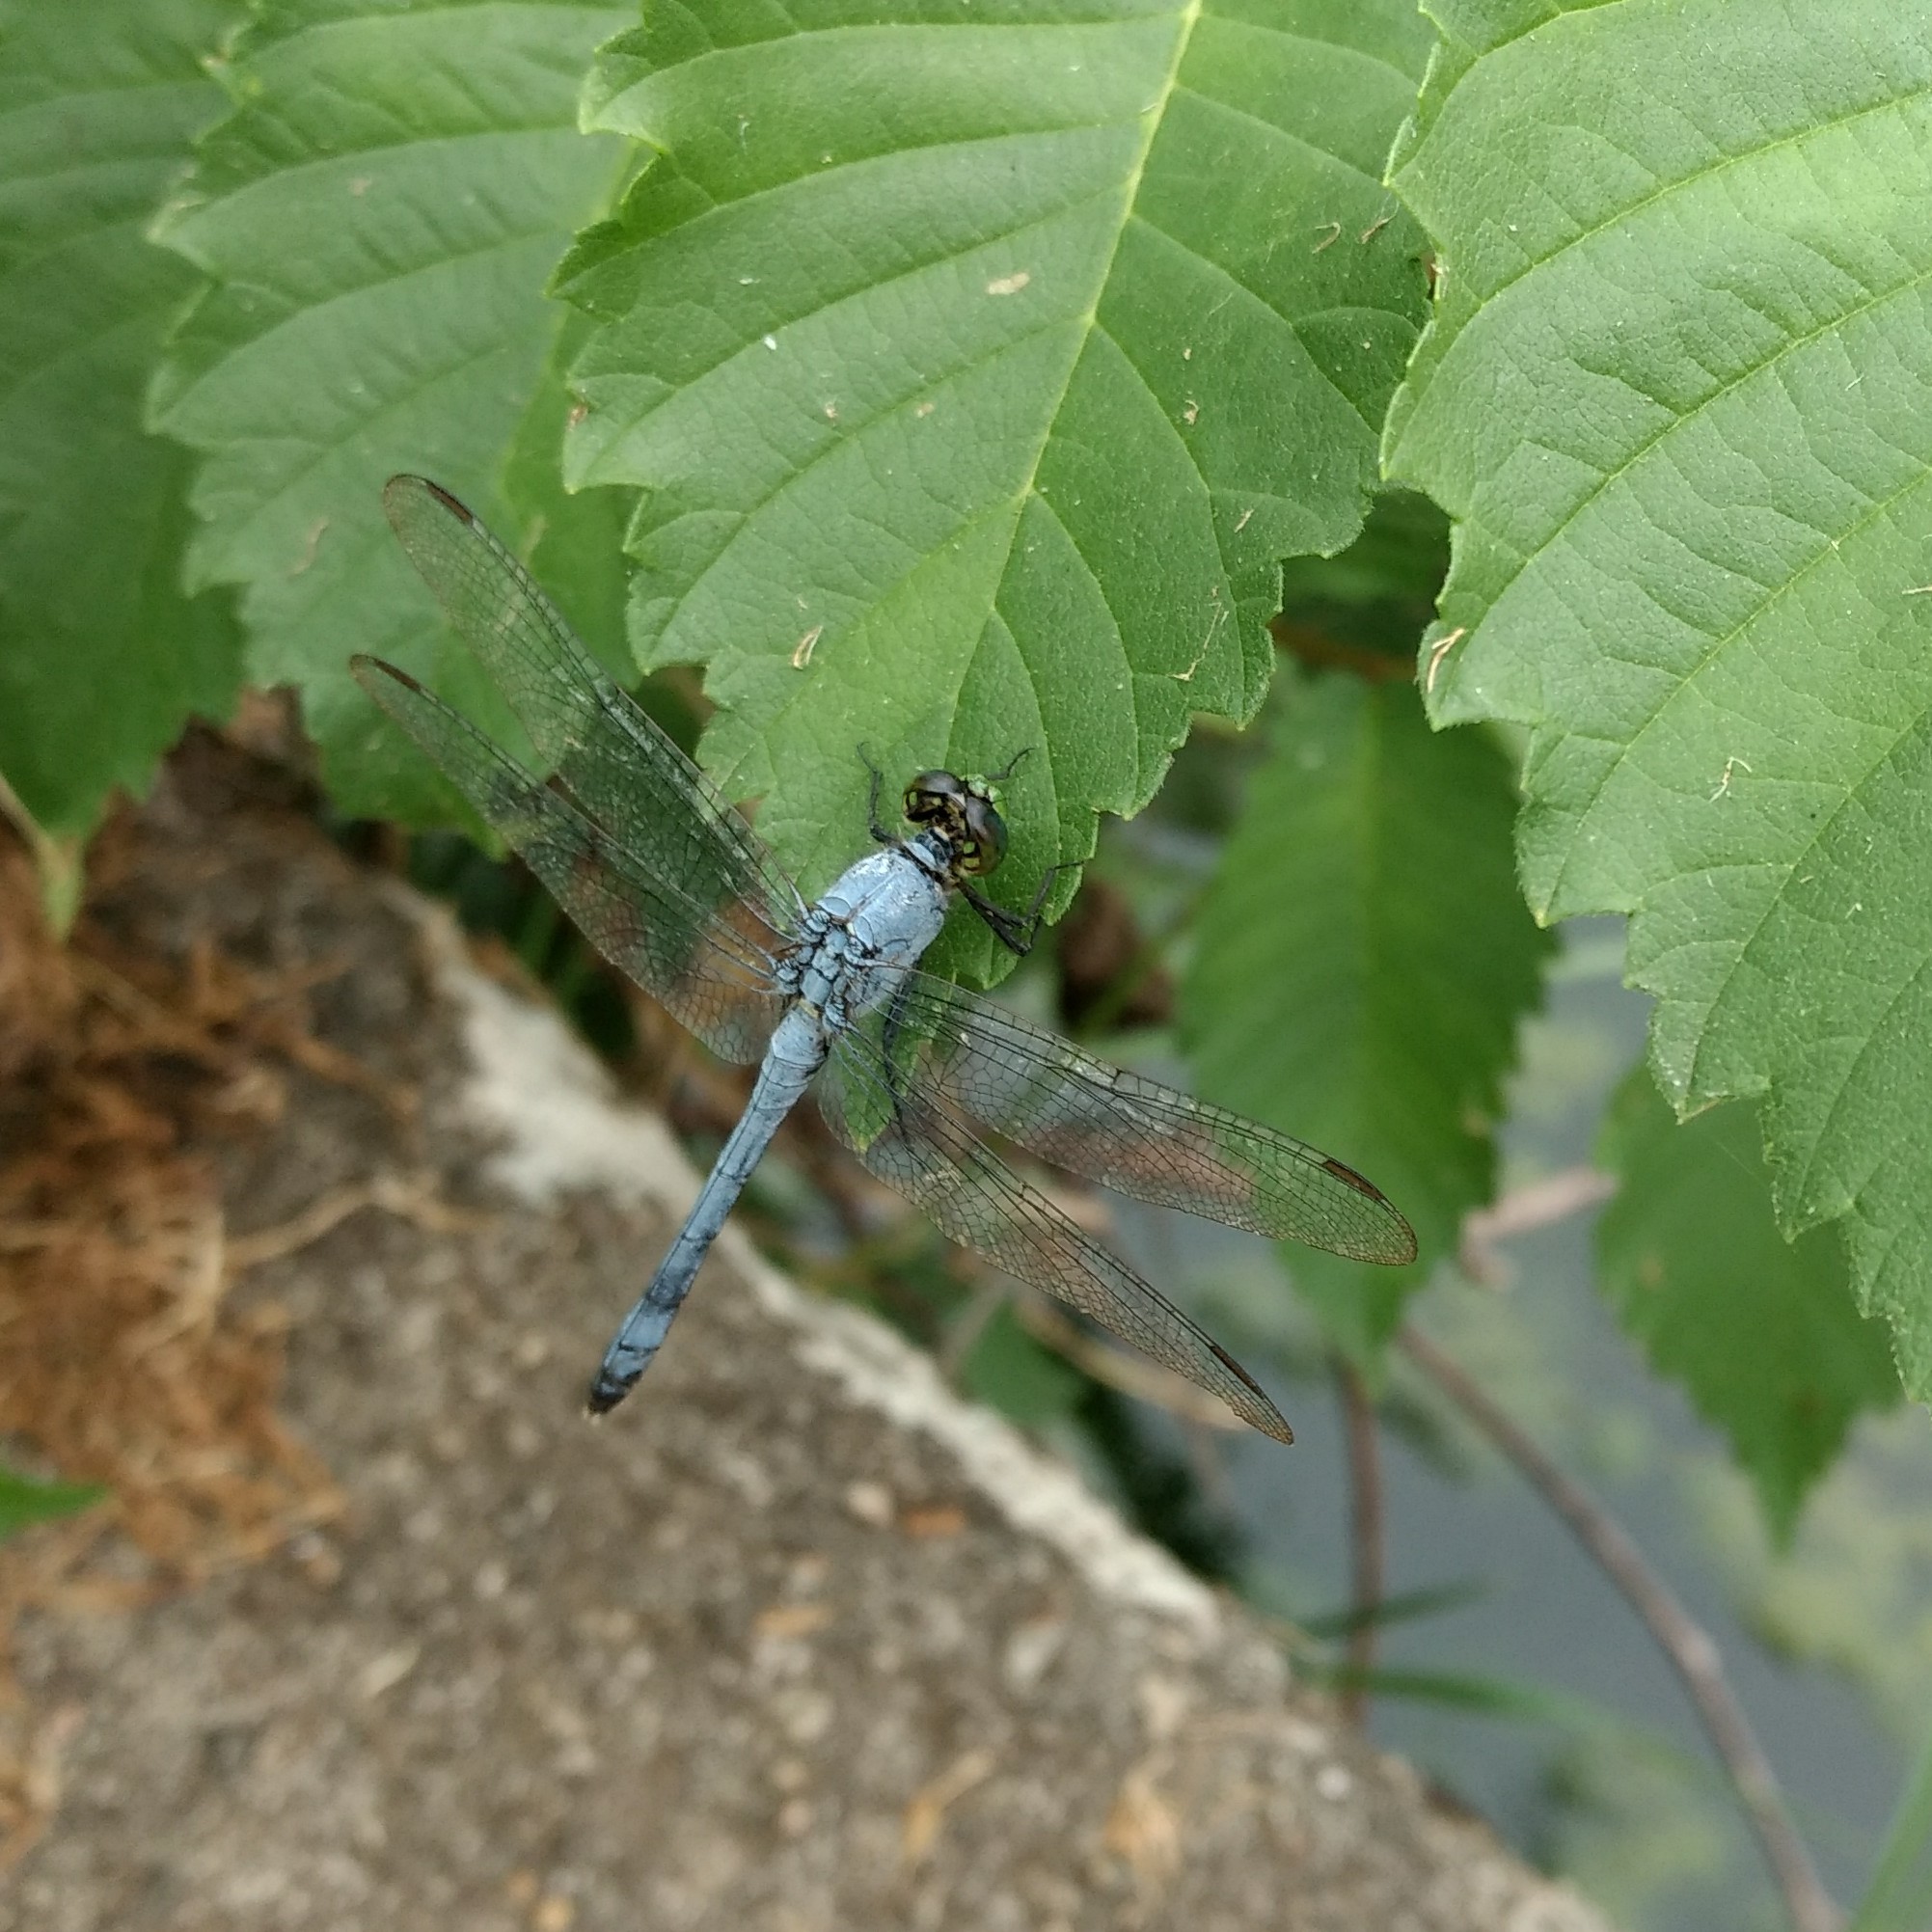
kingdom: Animalia
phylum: Arthropoda
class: Insecta
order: Odonata
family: Libellulidae
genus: Erythemis
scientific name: Erythemis simplicicollis
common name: Eastern pondhawk
